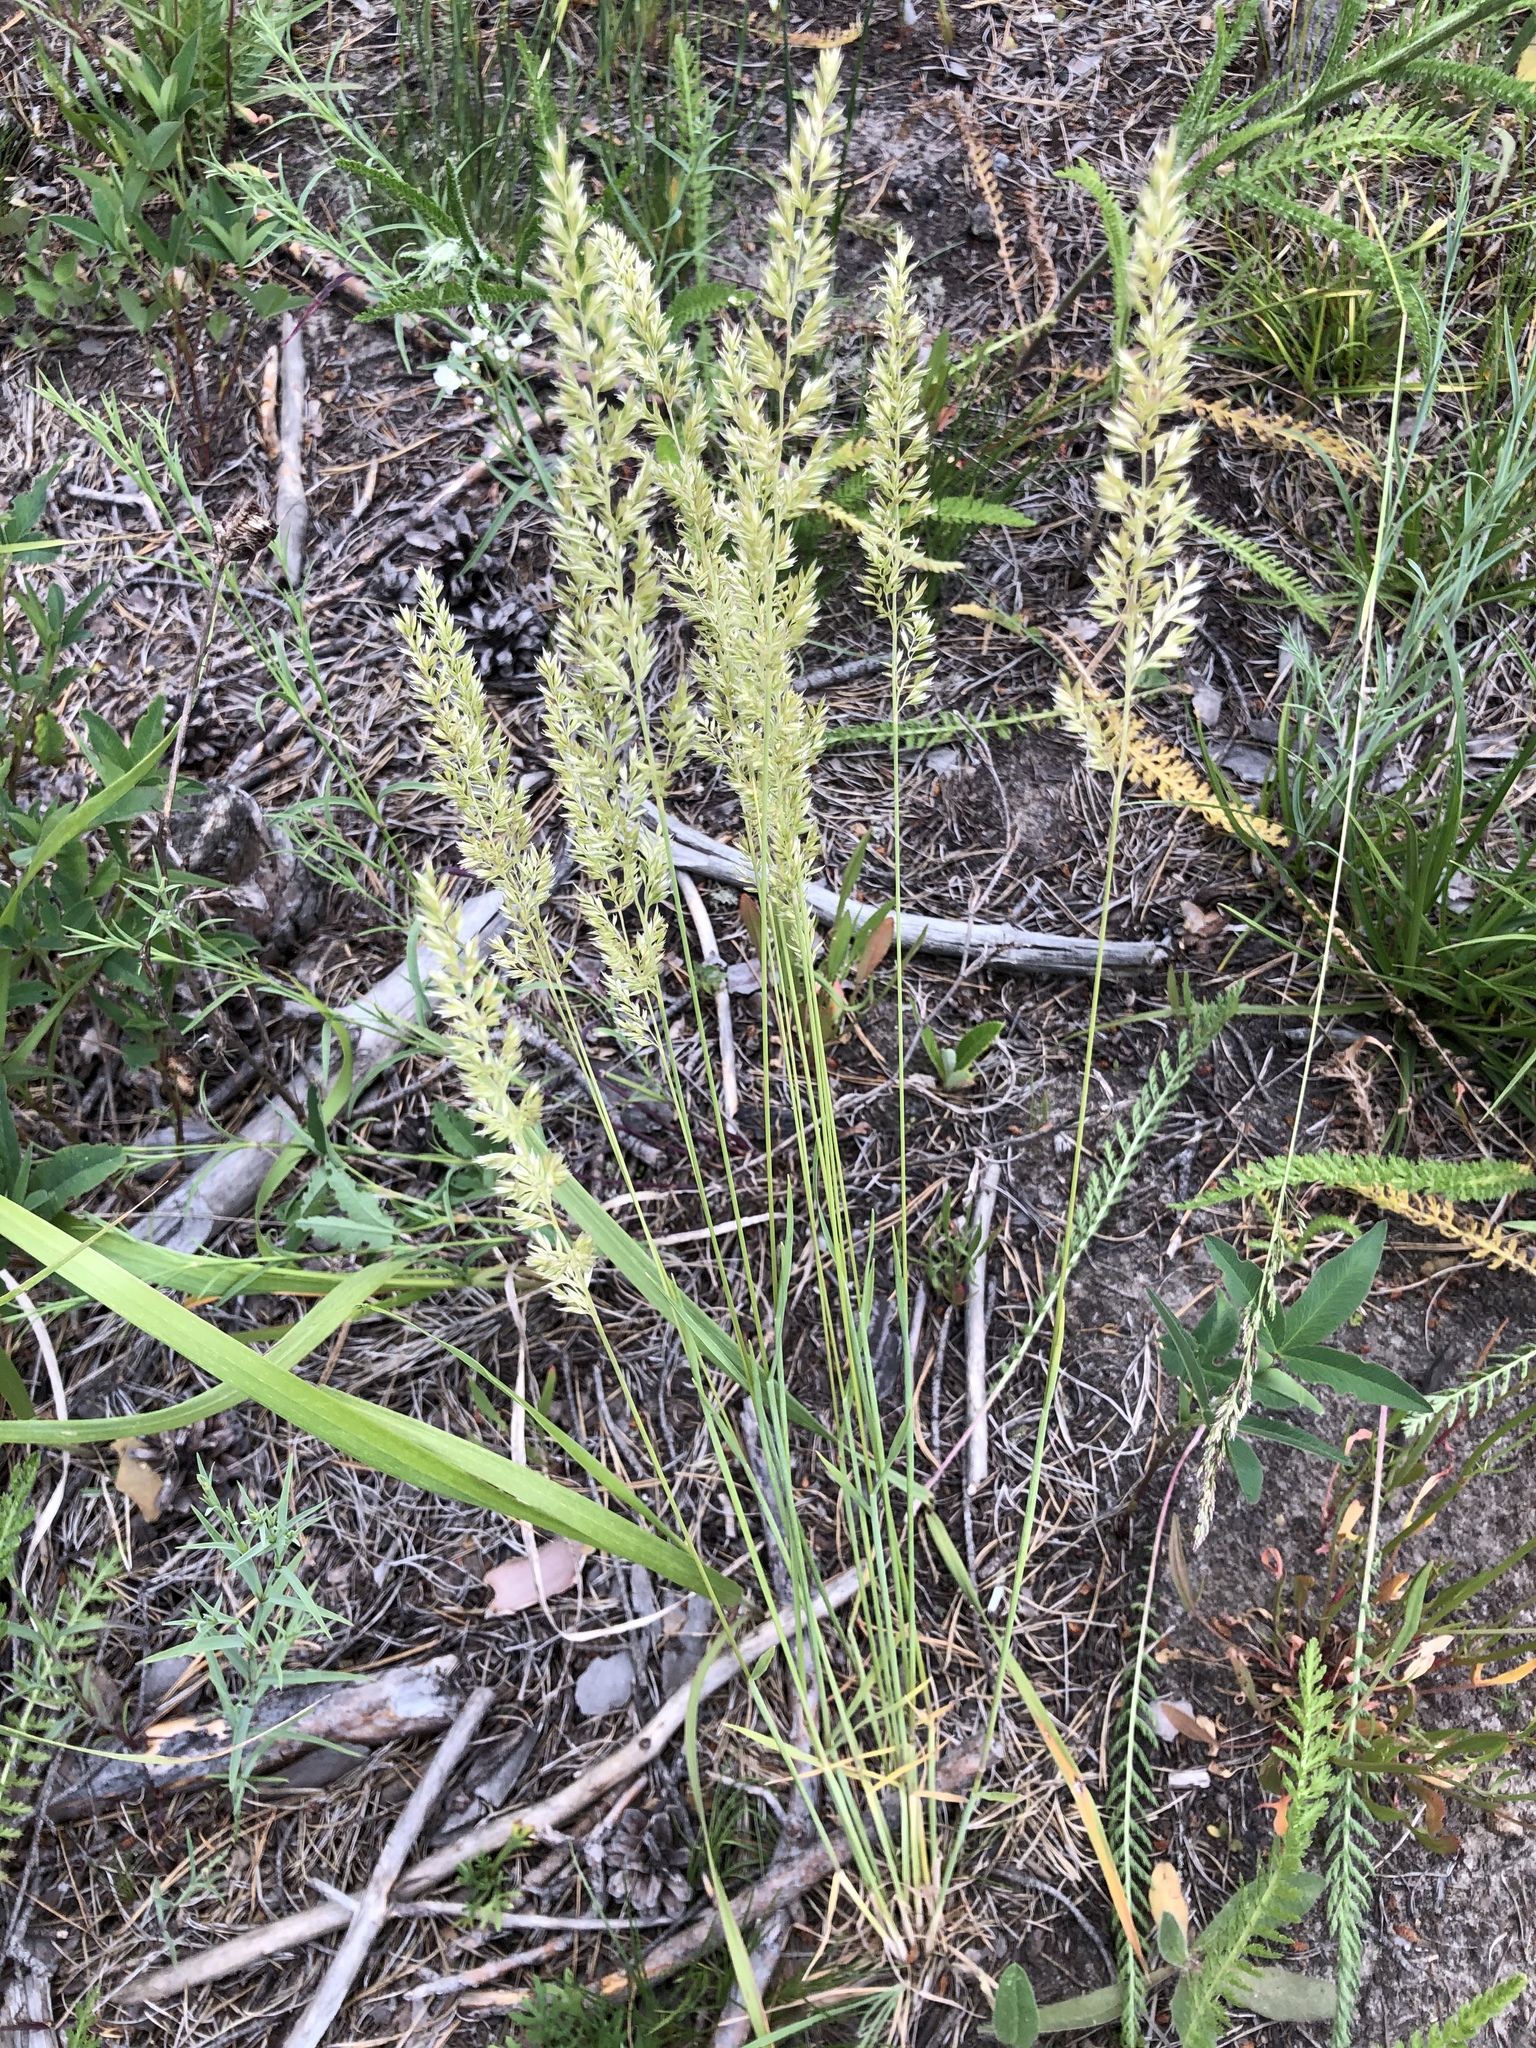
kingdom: Plantae
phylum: Tracheophyta
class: Liliopsida
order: Poales
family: Poaceae
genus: Koeleria
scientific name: Koeleria glauca
